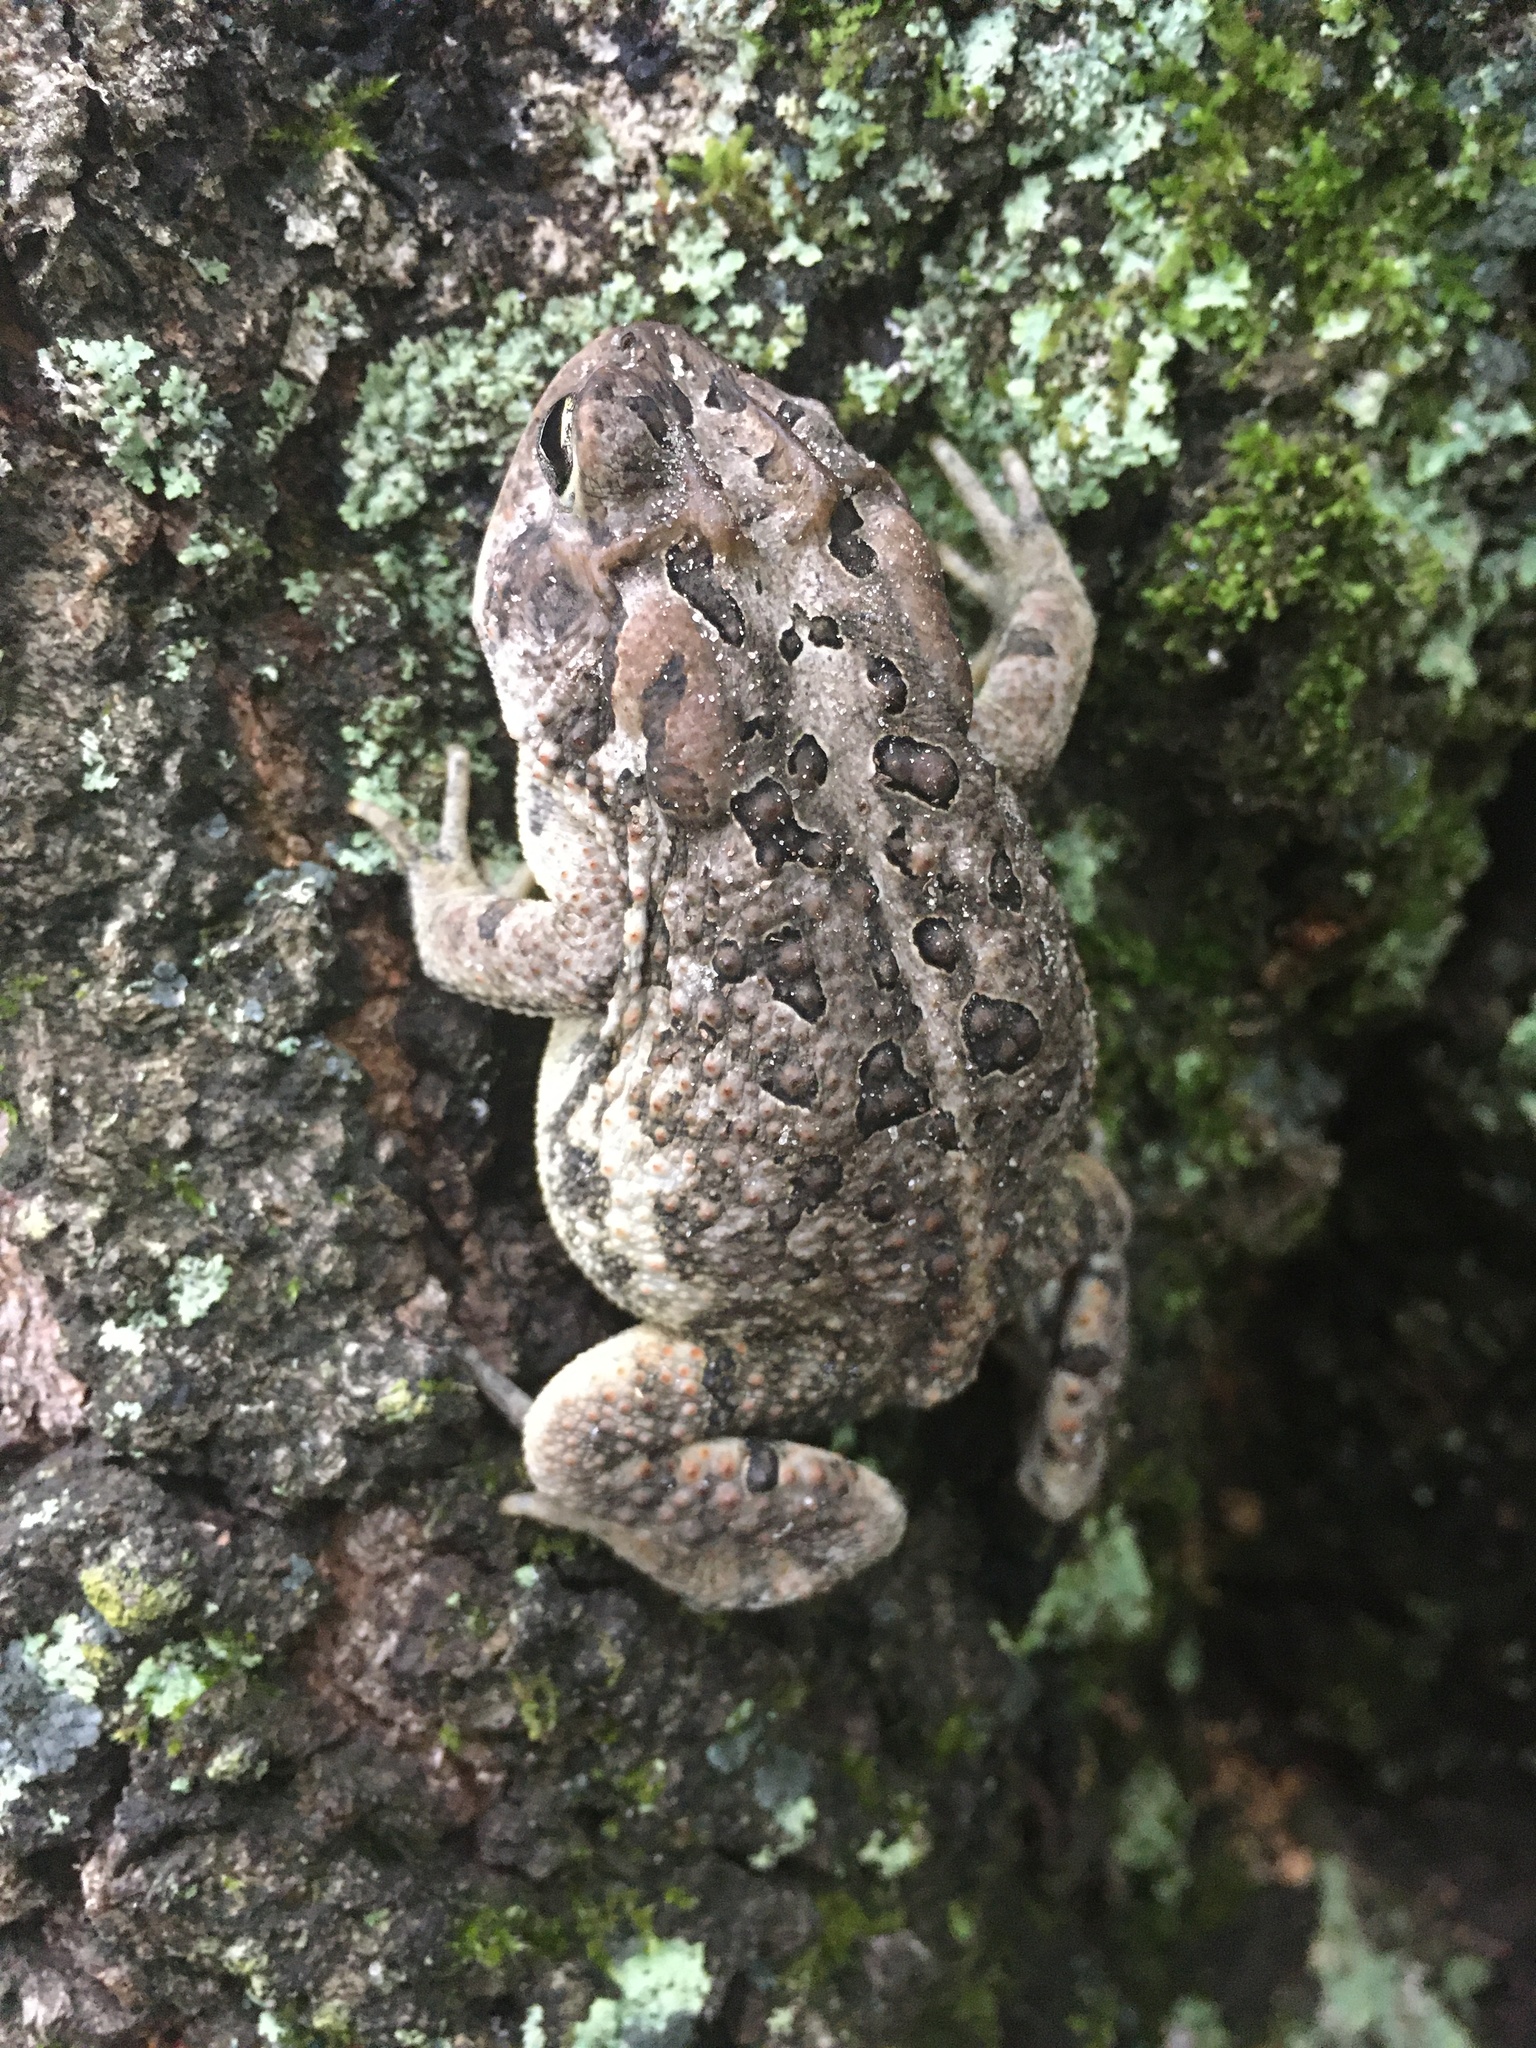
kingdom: Animalia
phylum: Chordata
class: Amphibia
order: Anura
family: Bufonidae
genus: Anaxyrus
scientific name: Anaxyrus terrestris
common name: Southern toad
